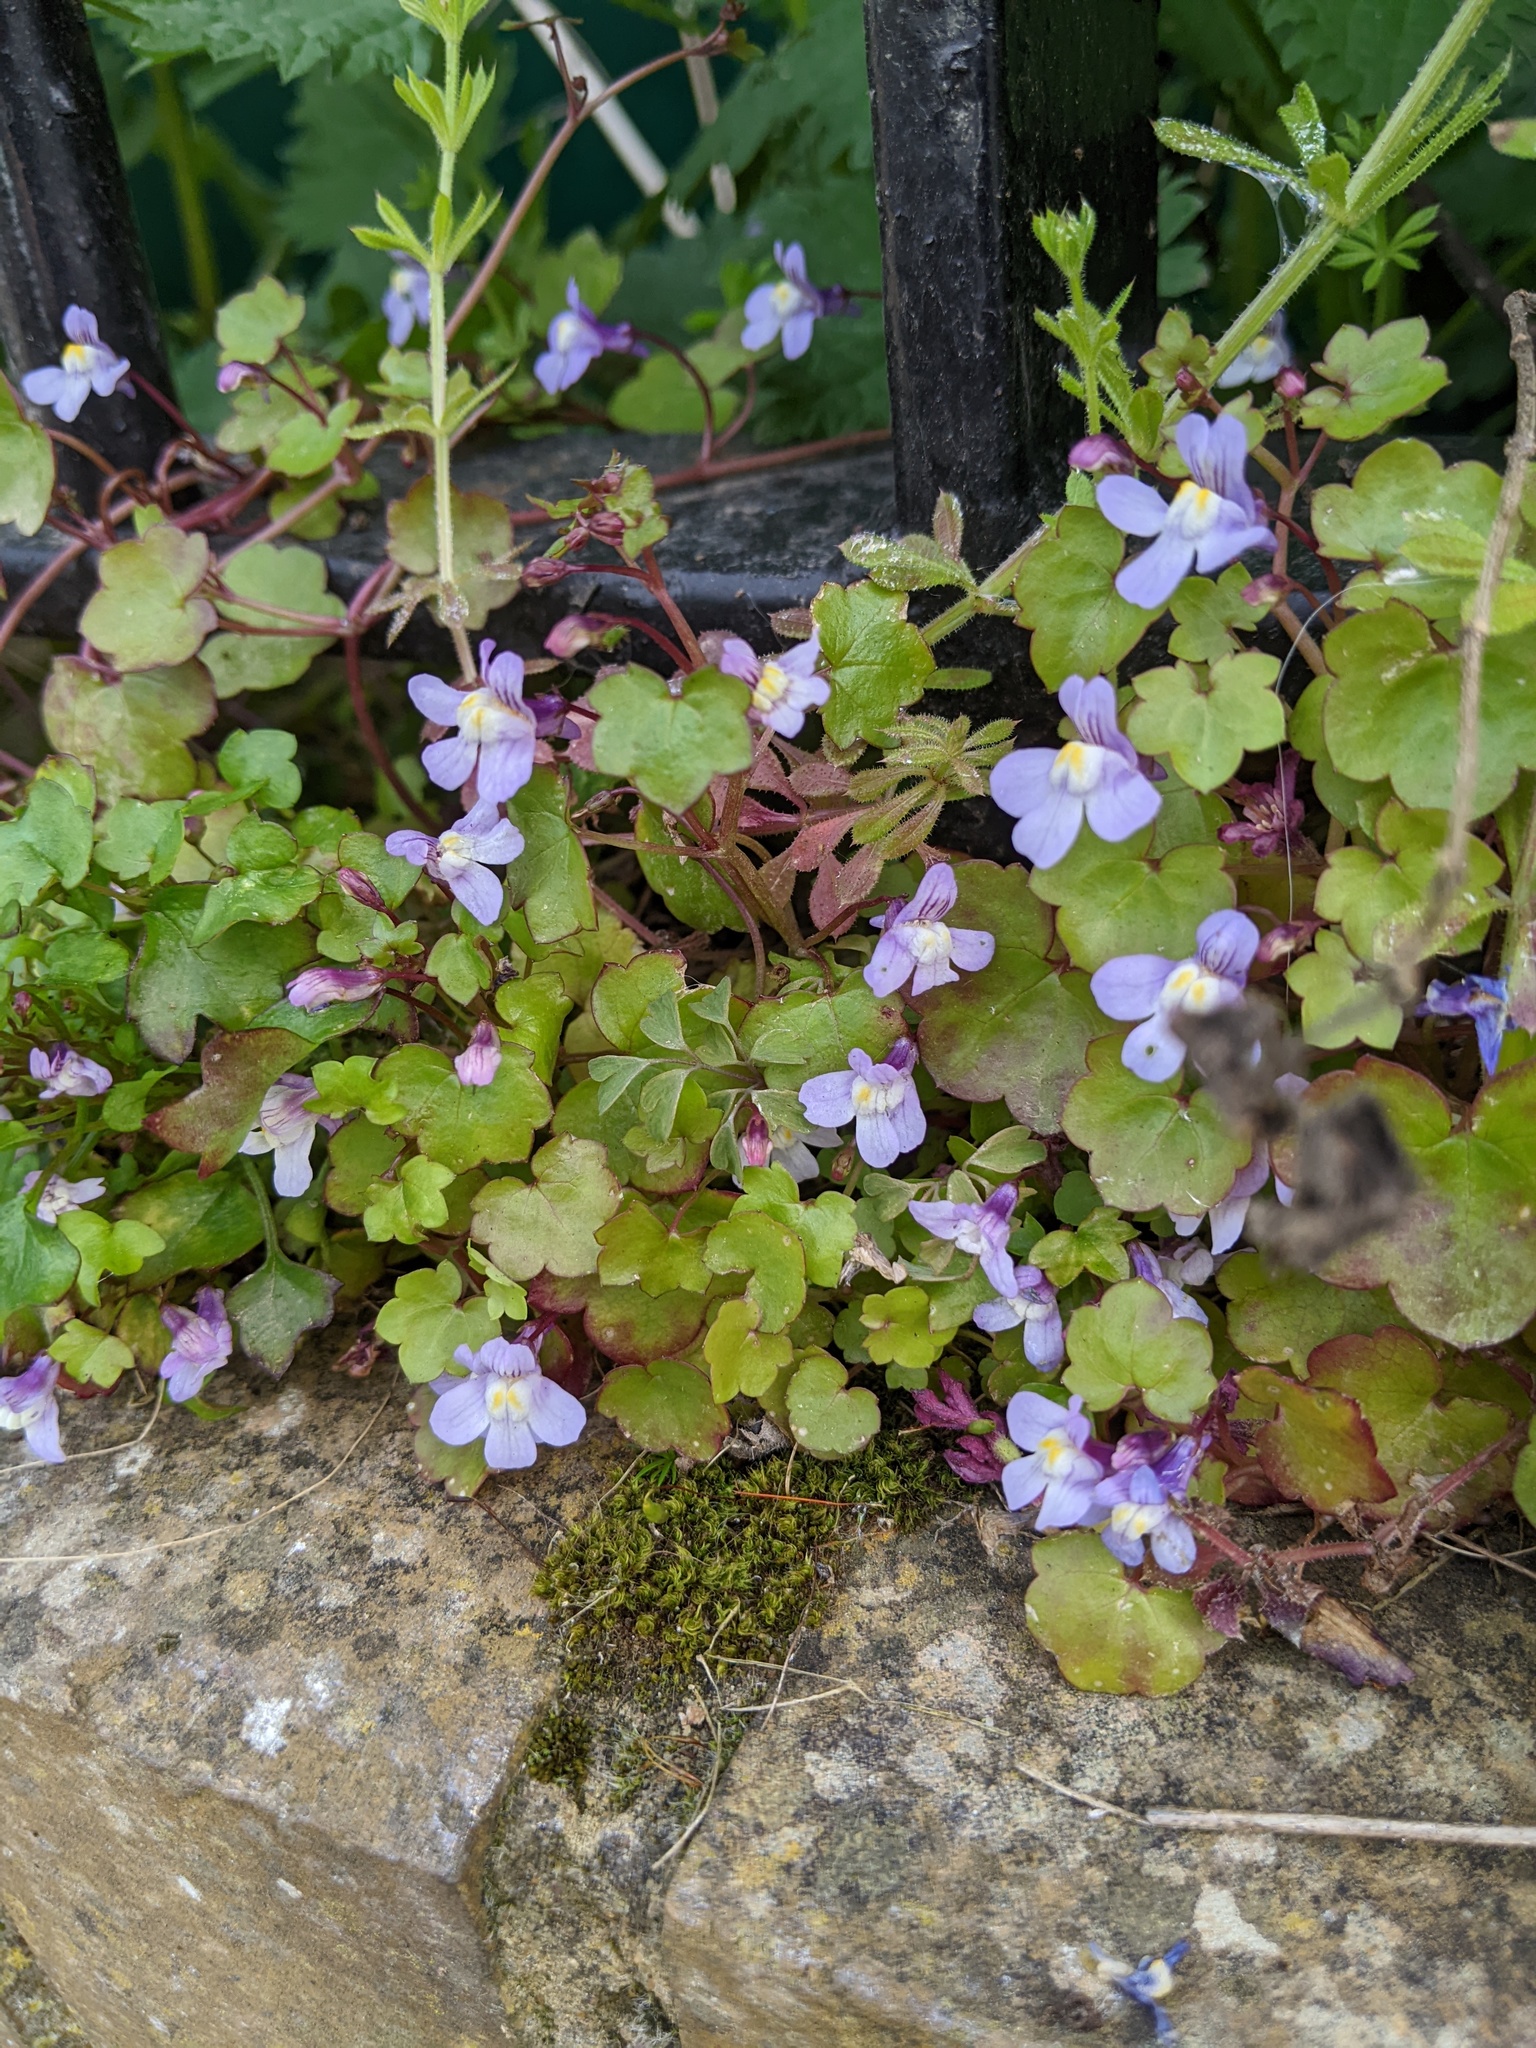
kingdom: Plantae
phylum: Tracheophyta
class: Magnoliopsida
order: Lamiales
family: Plantaginaceae
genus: Cymbalaria
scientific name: Cymbalaria muralis
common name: Ivy-leaved toadflax
